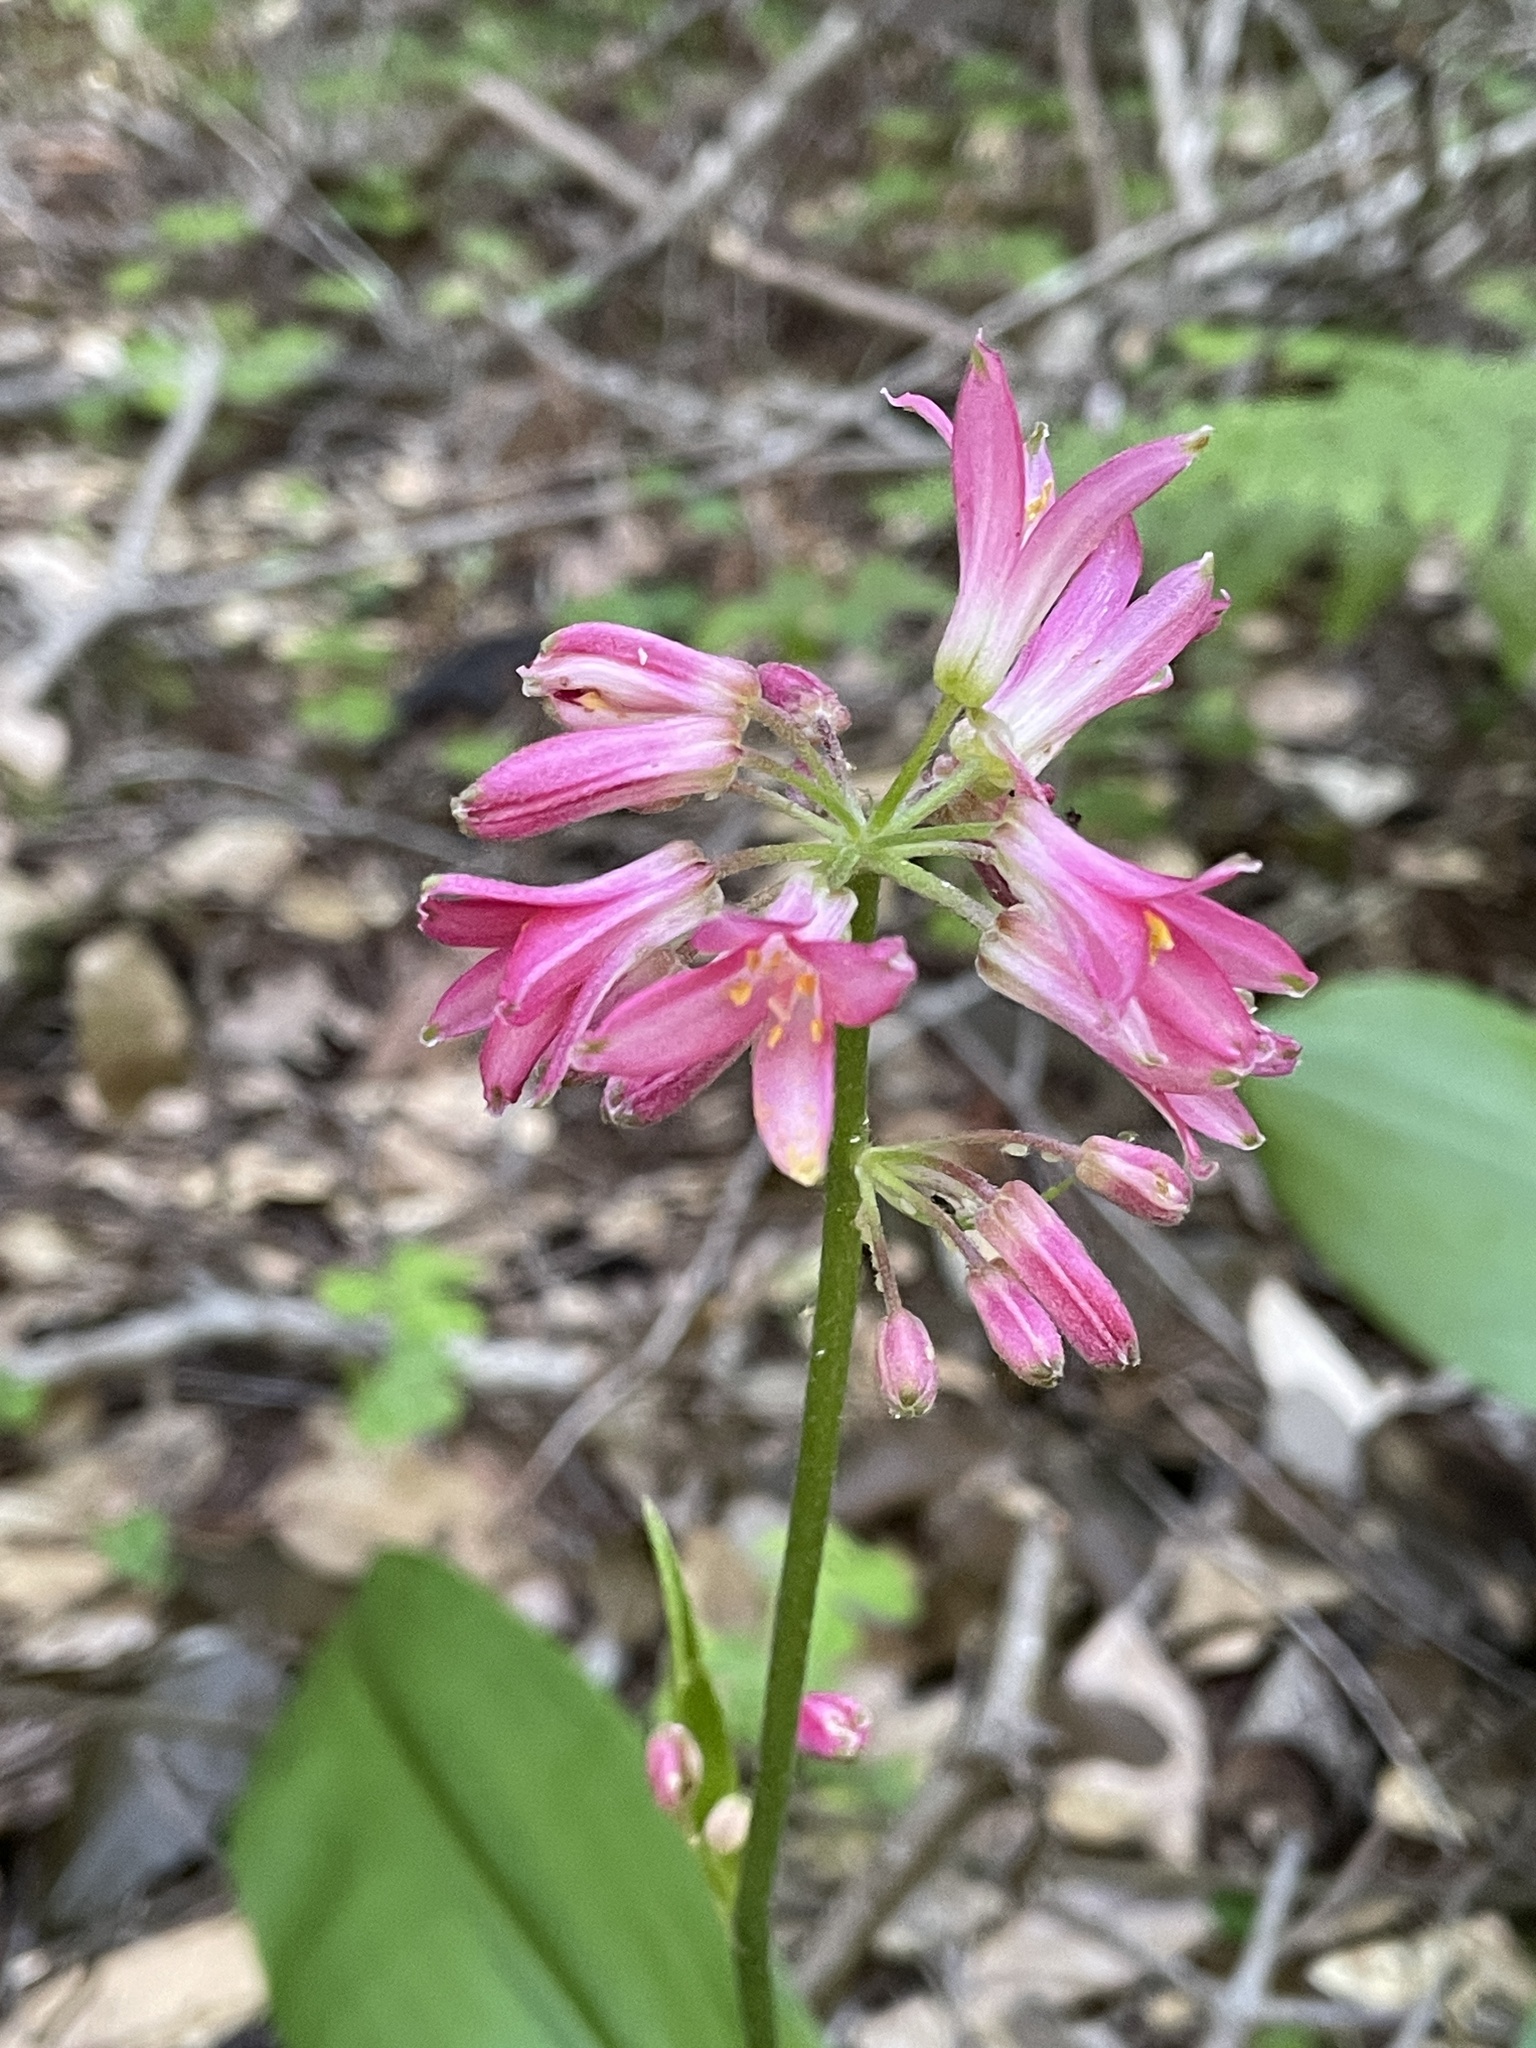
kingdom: Plantae
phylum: Tracheophyta
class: Liliopsida
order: Liliales
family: Liliaceae
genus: Clintonia
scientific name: Clintonia andrewsiana
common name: Red clintonia
